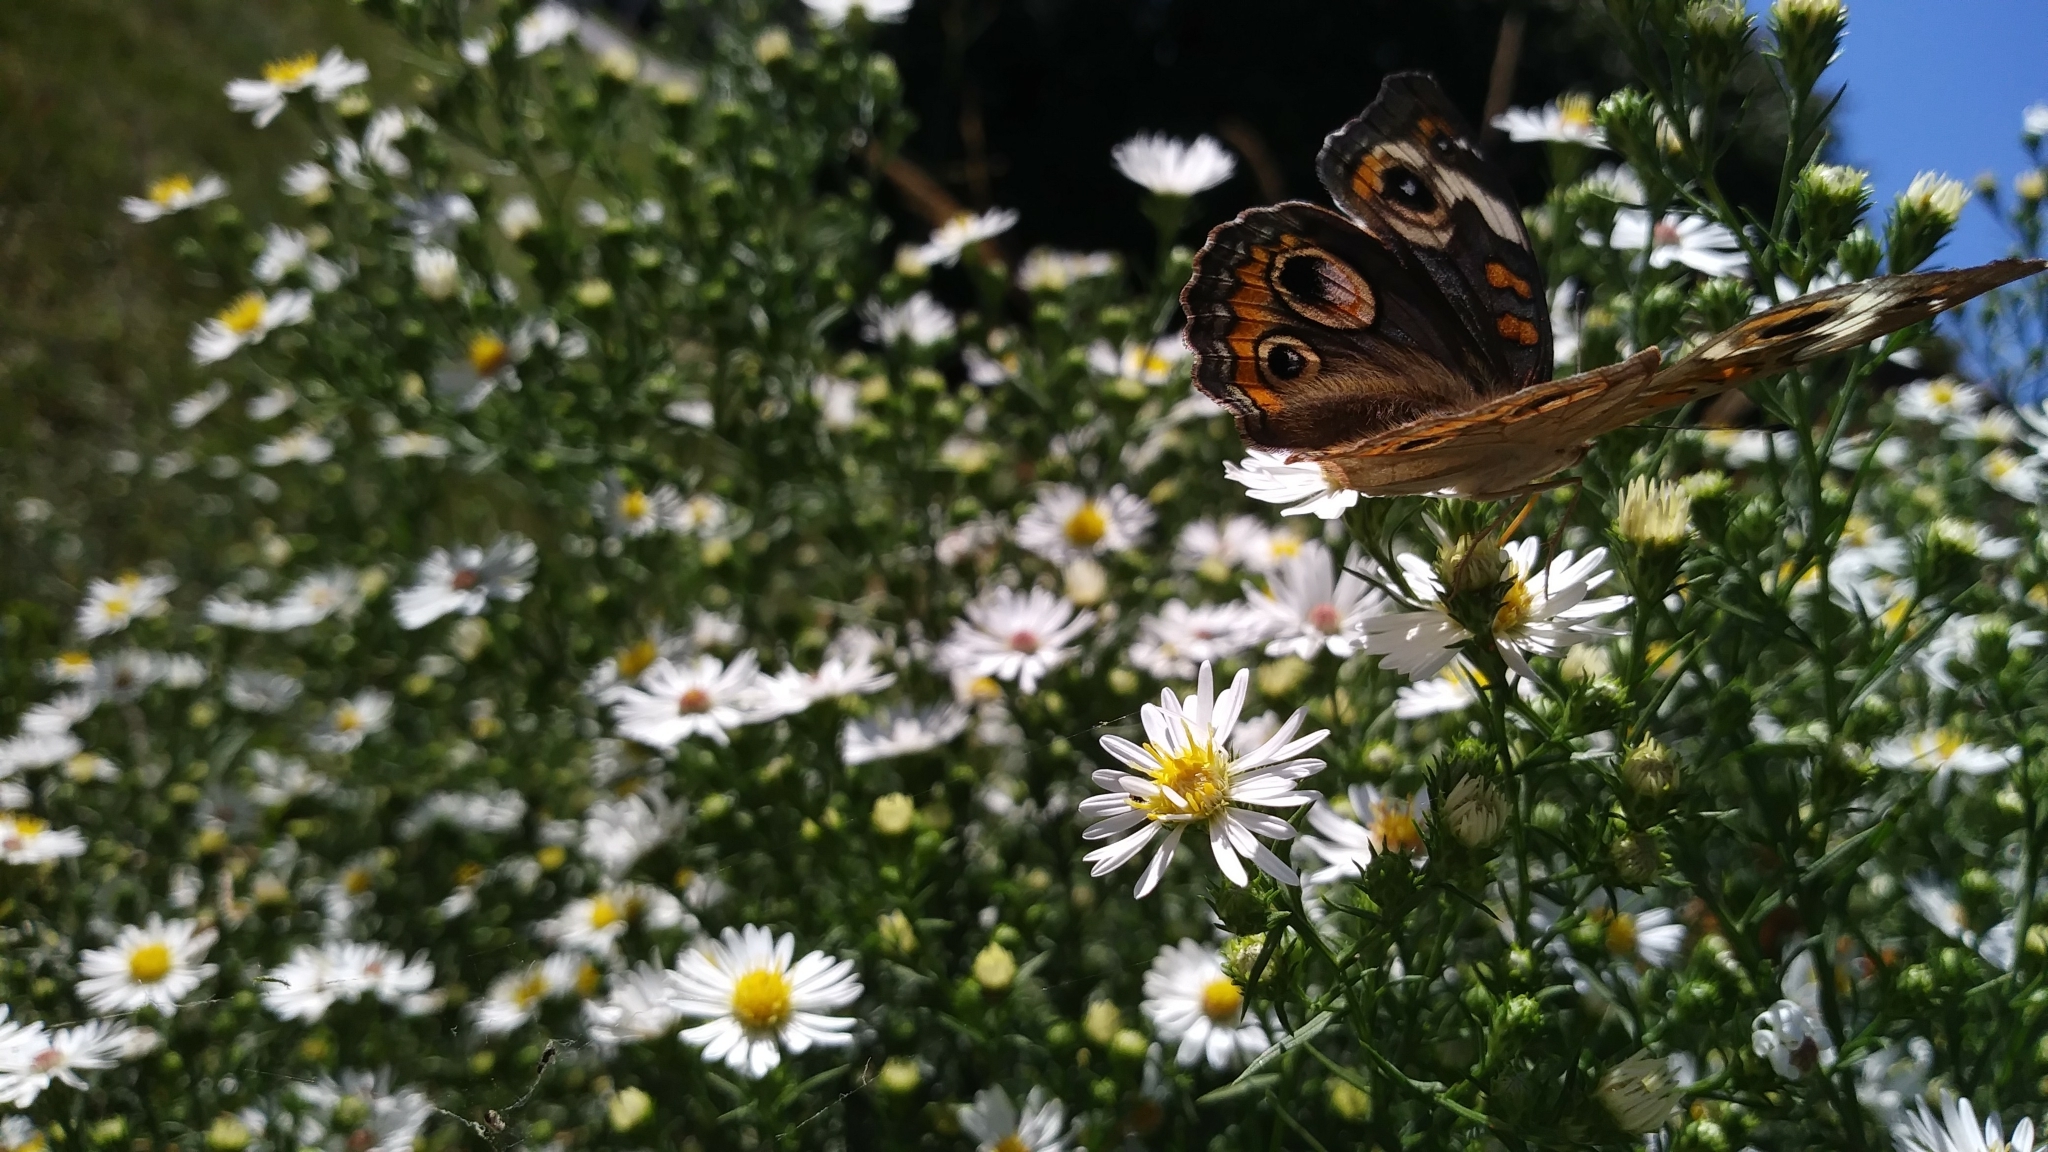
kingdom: Animalia
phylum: Arthropoda
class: Insecta
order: Lepidoptera
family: Nymphalidae
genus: Junonia
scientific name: Junonia coenia
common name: Common buckeye
